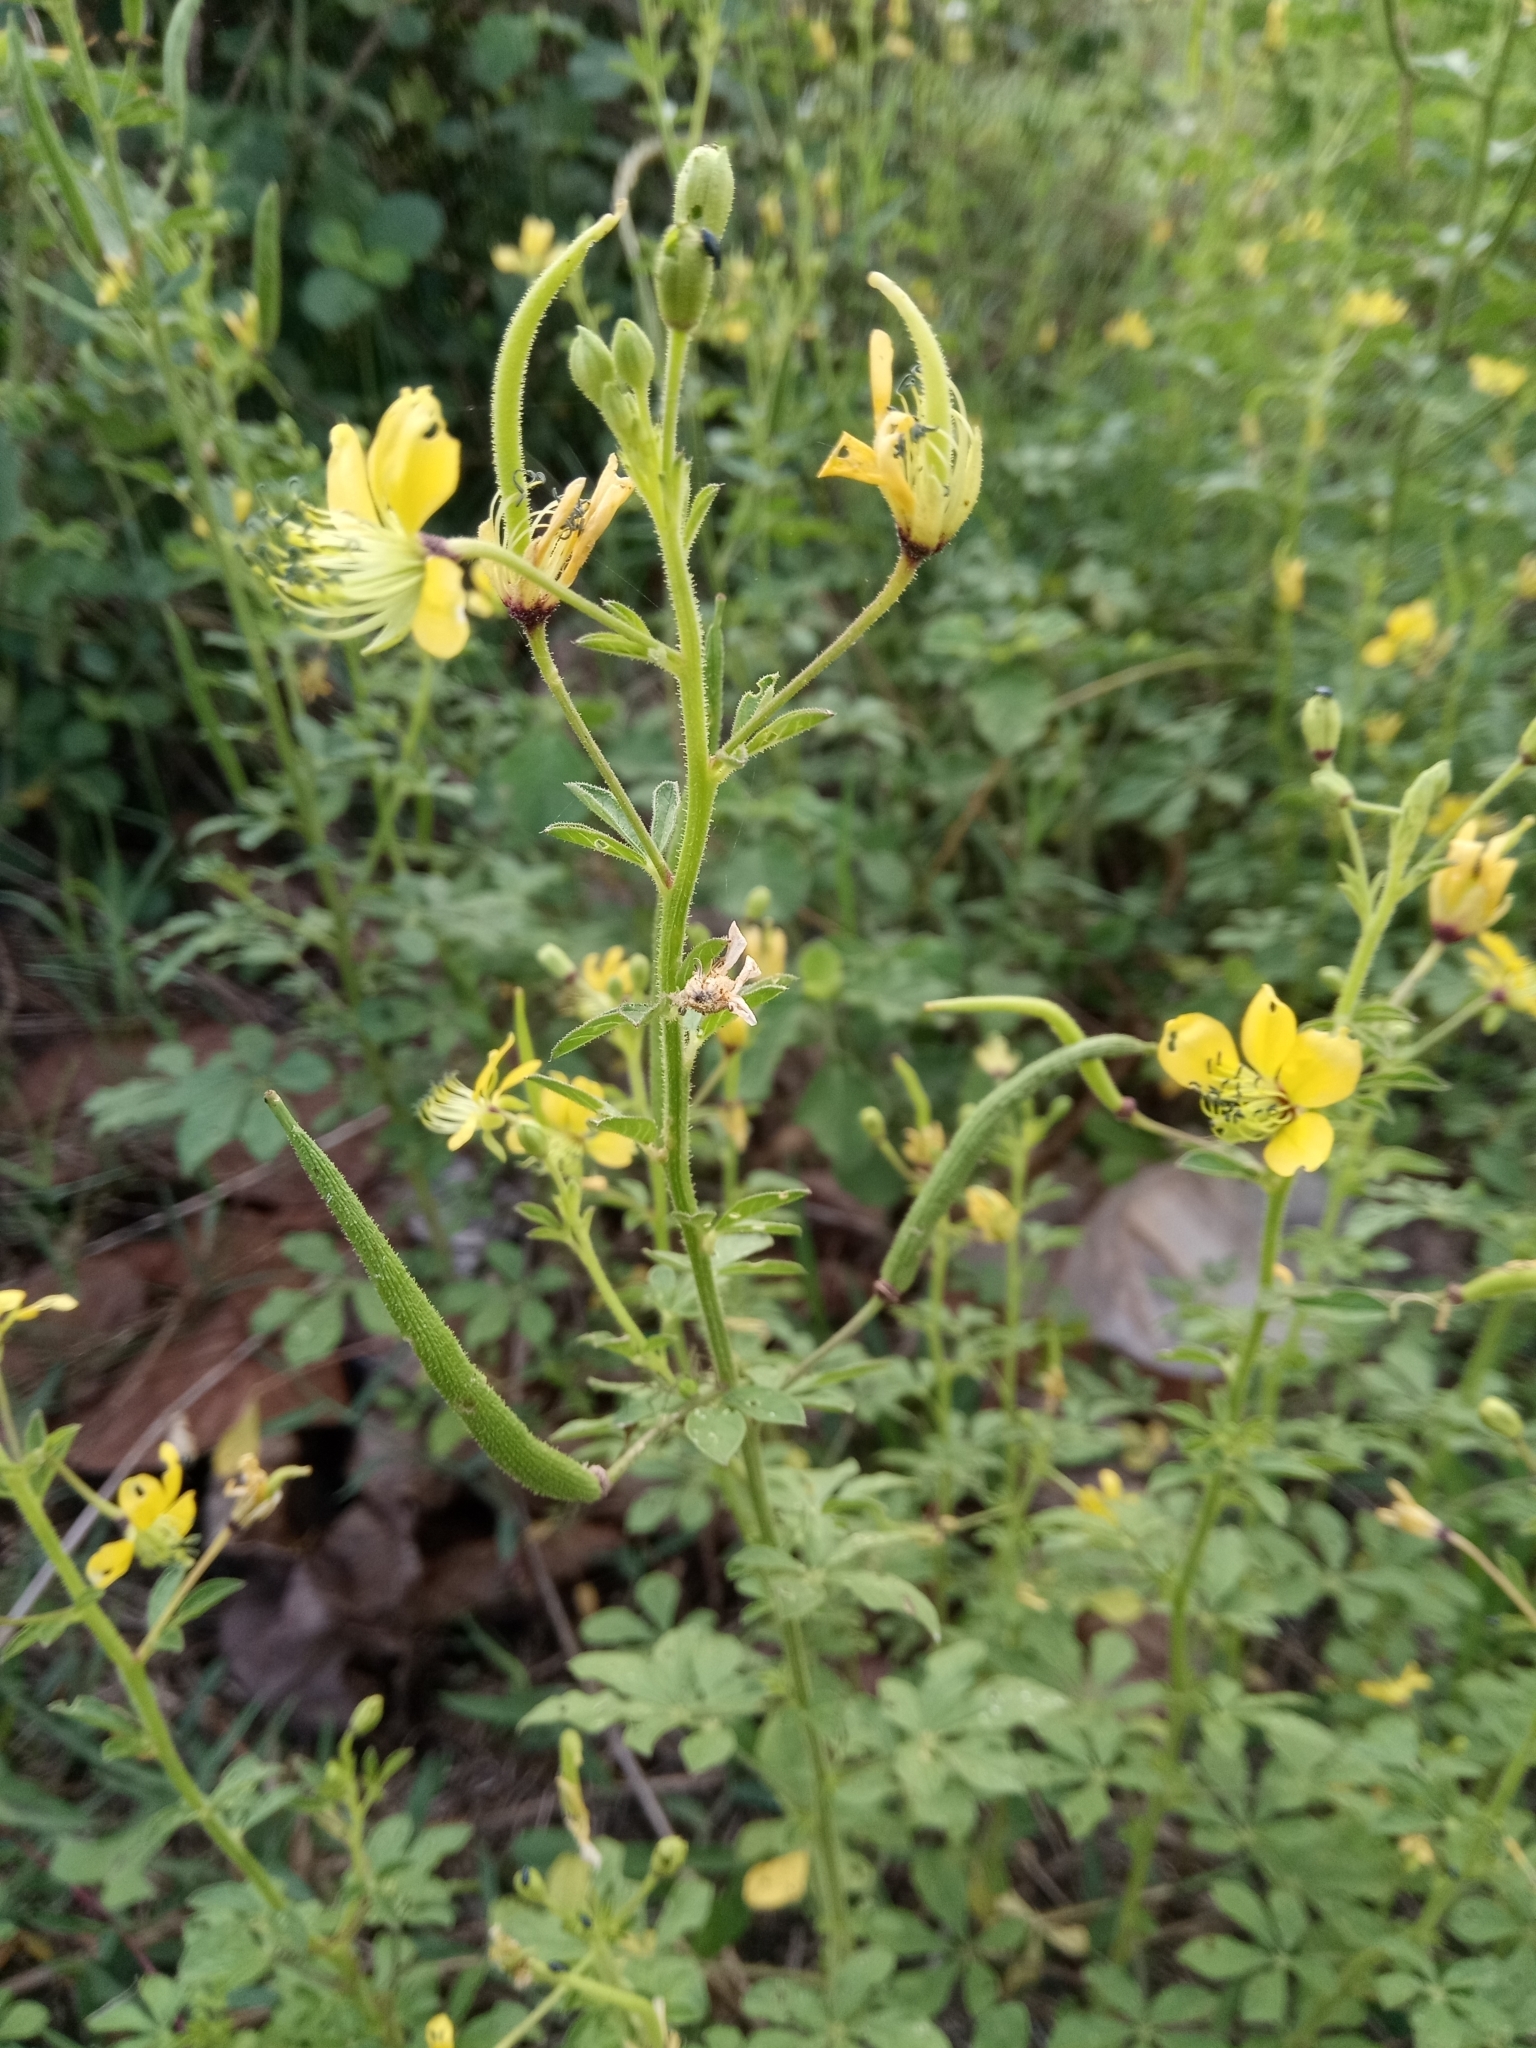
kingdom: Plantae
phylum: Tracheophyta
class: Magnoliopsida
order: Brassicales
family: Cleomaceae
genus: Arivela
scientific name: Arivela viscosa
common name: Asian spiderflower
